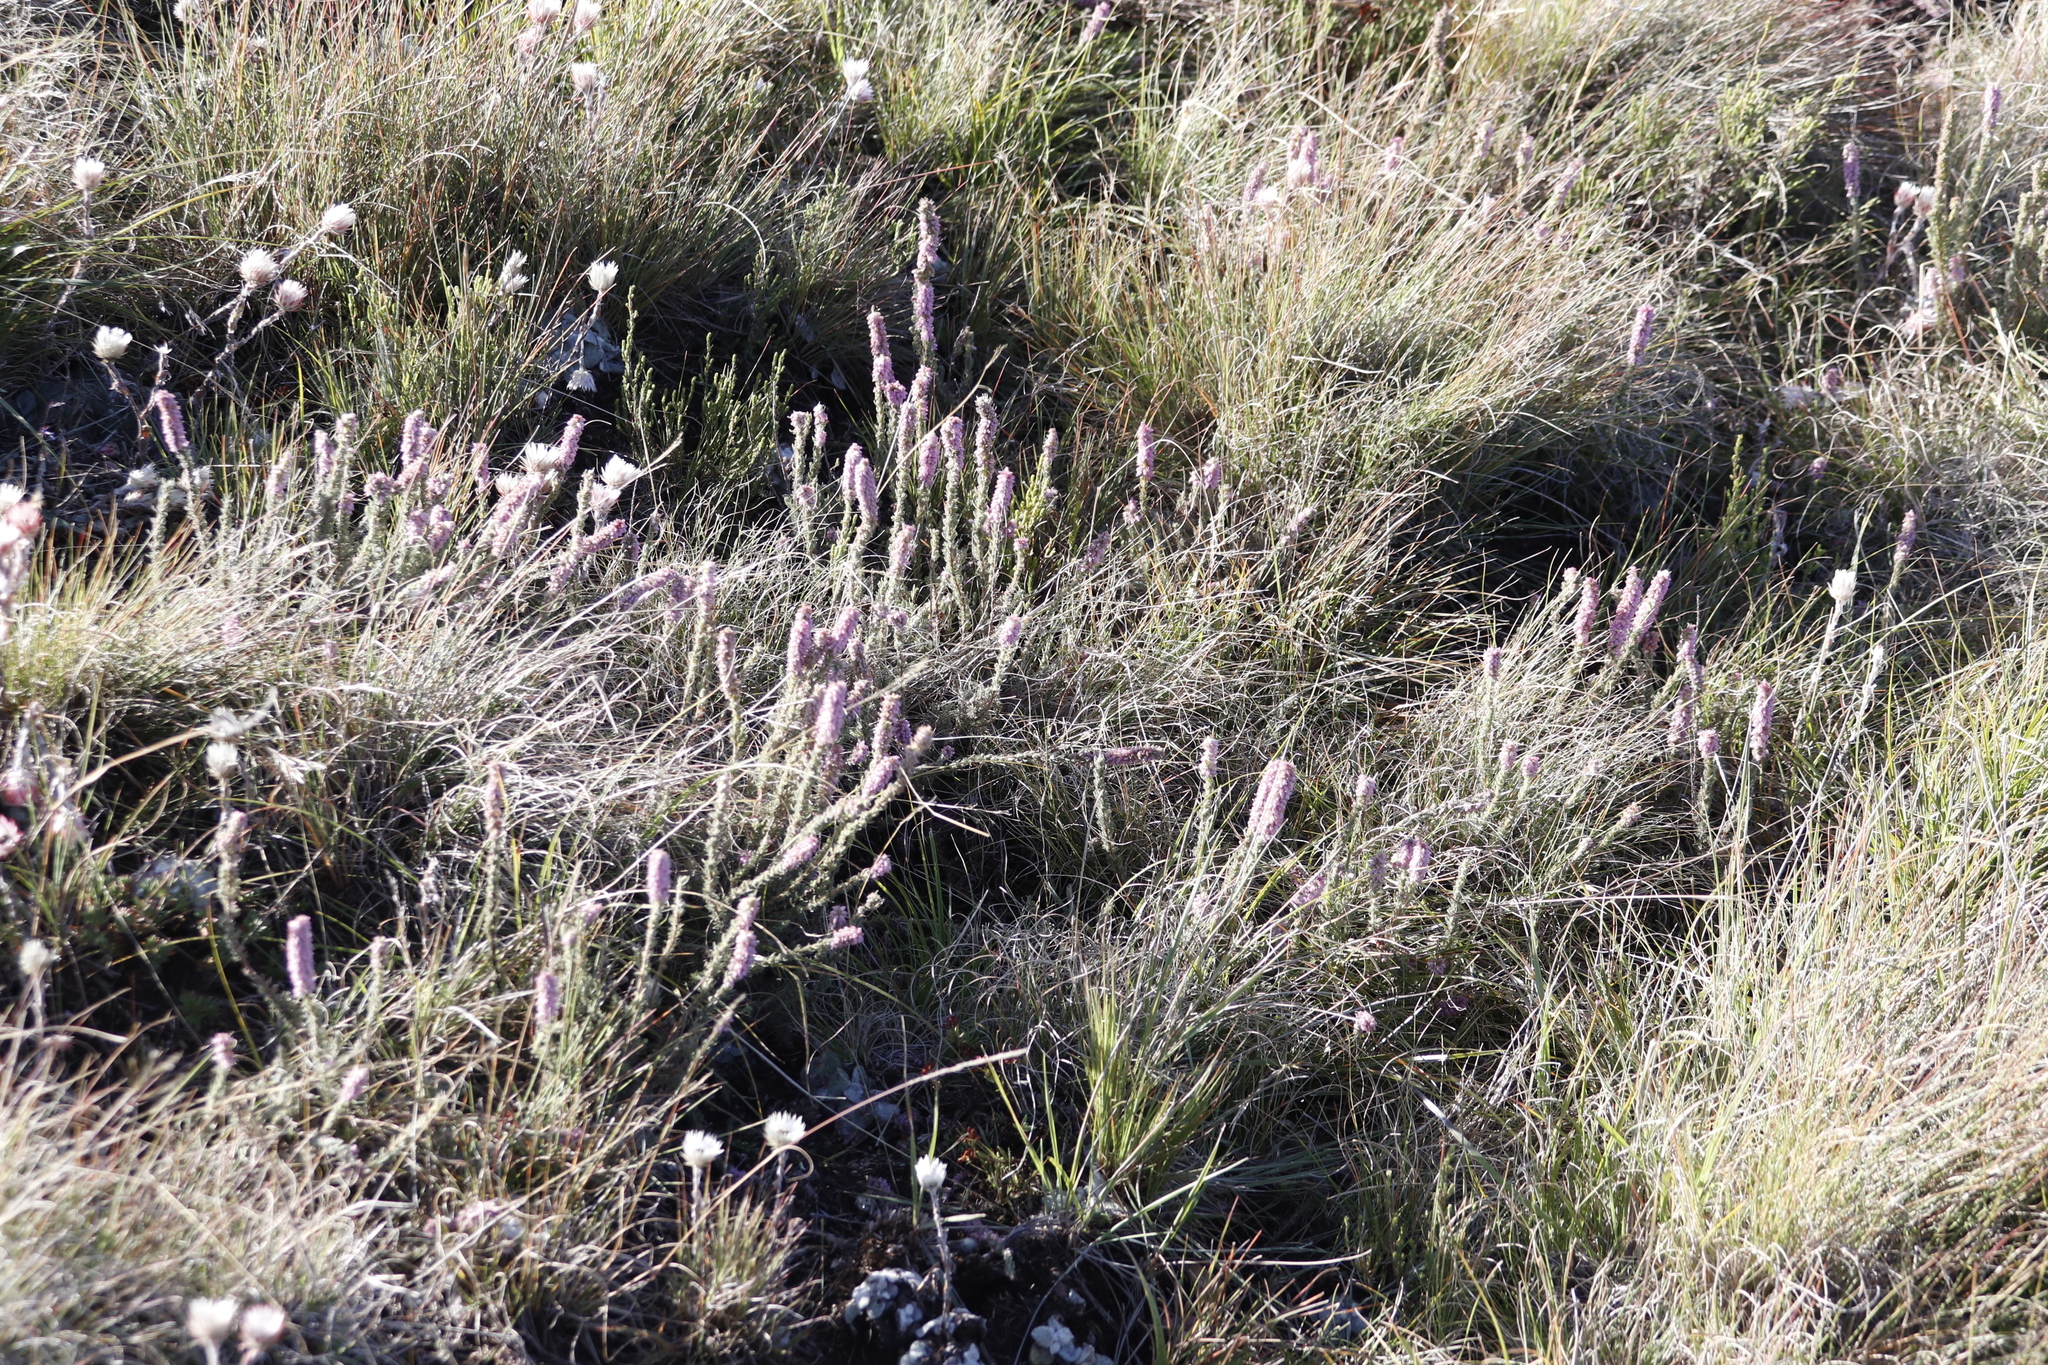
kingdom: Plantae
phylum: Tracheophyta
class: Magnoliopsida
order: Ericales
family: Ericaceae
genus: Erica
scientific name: Erica alopecurus
